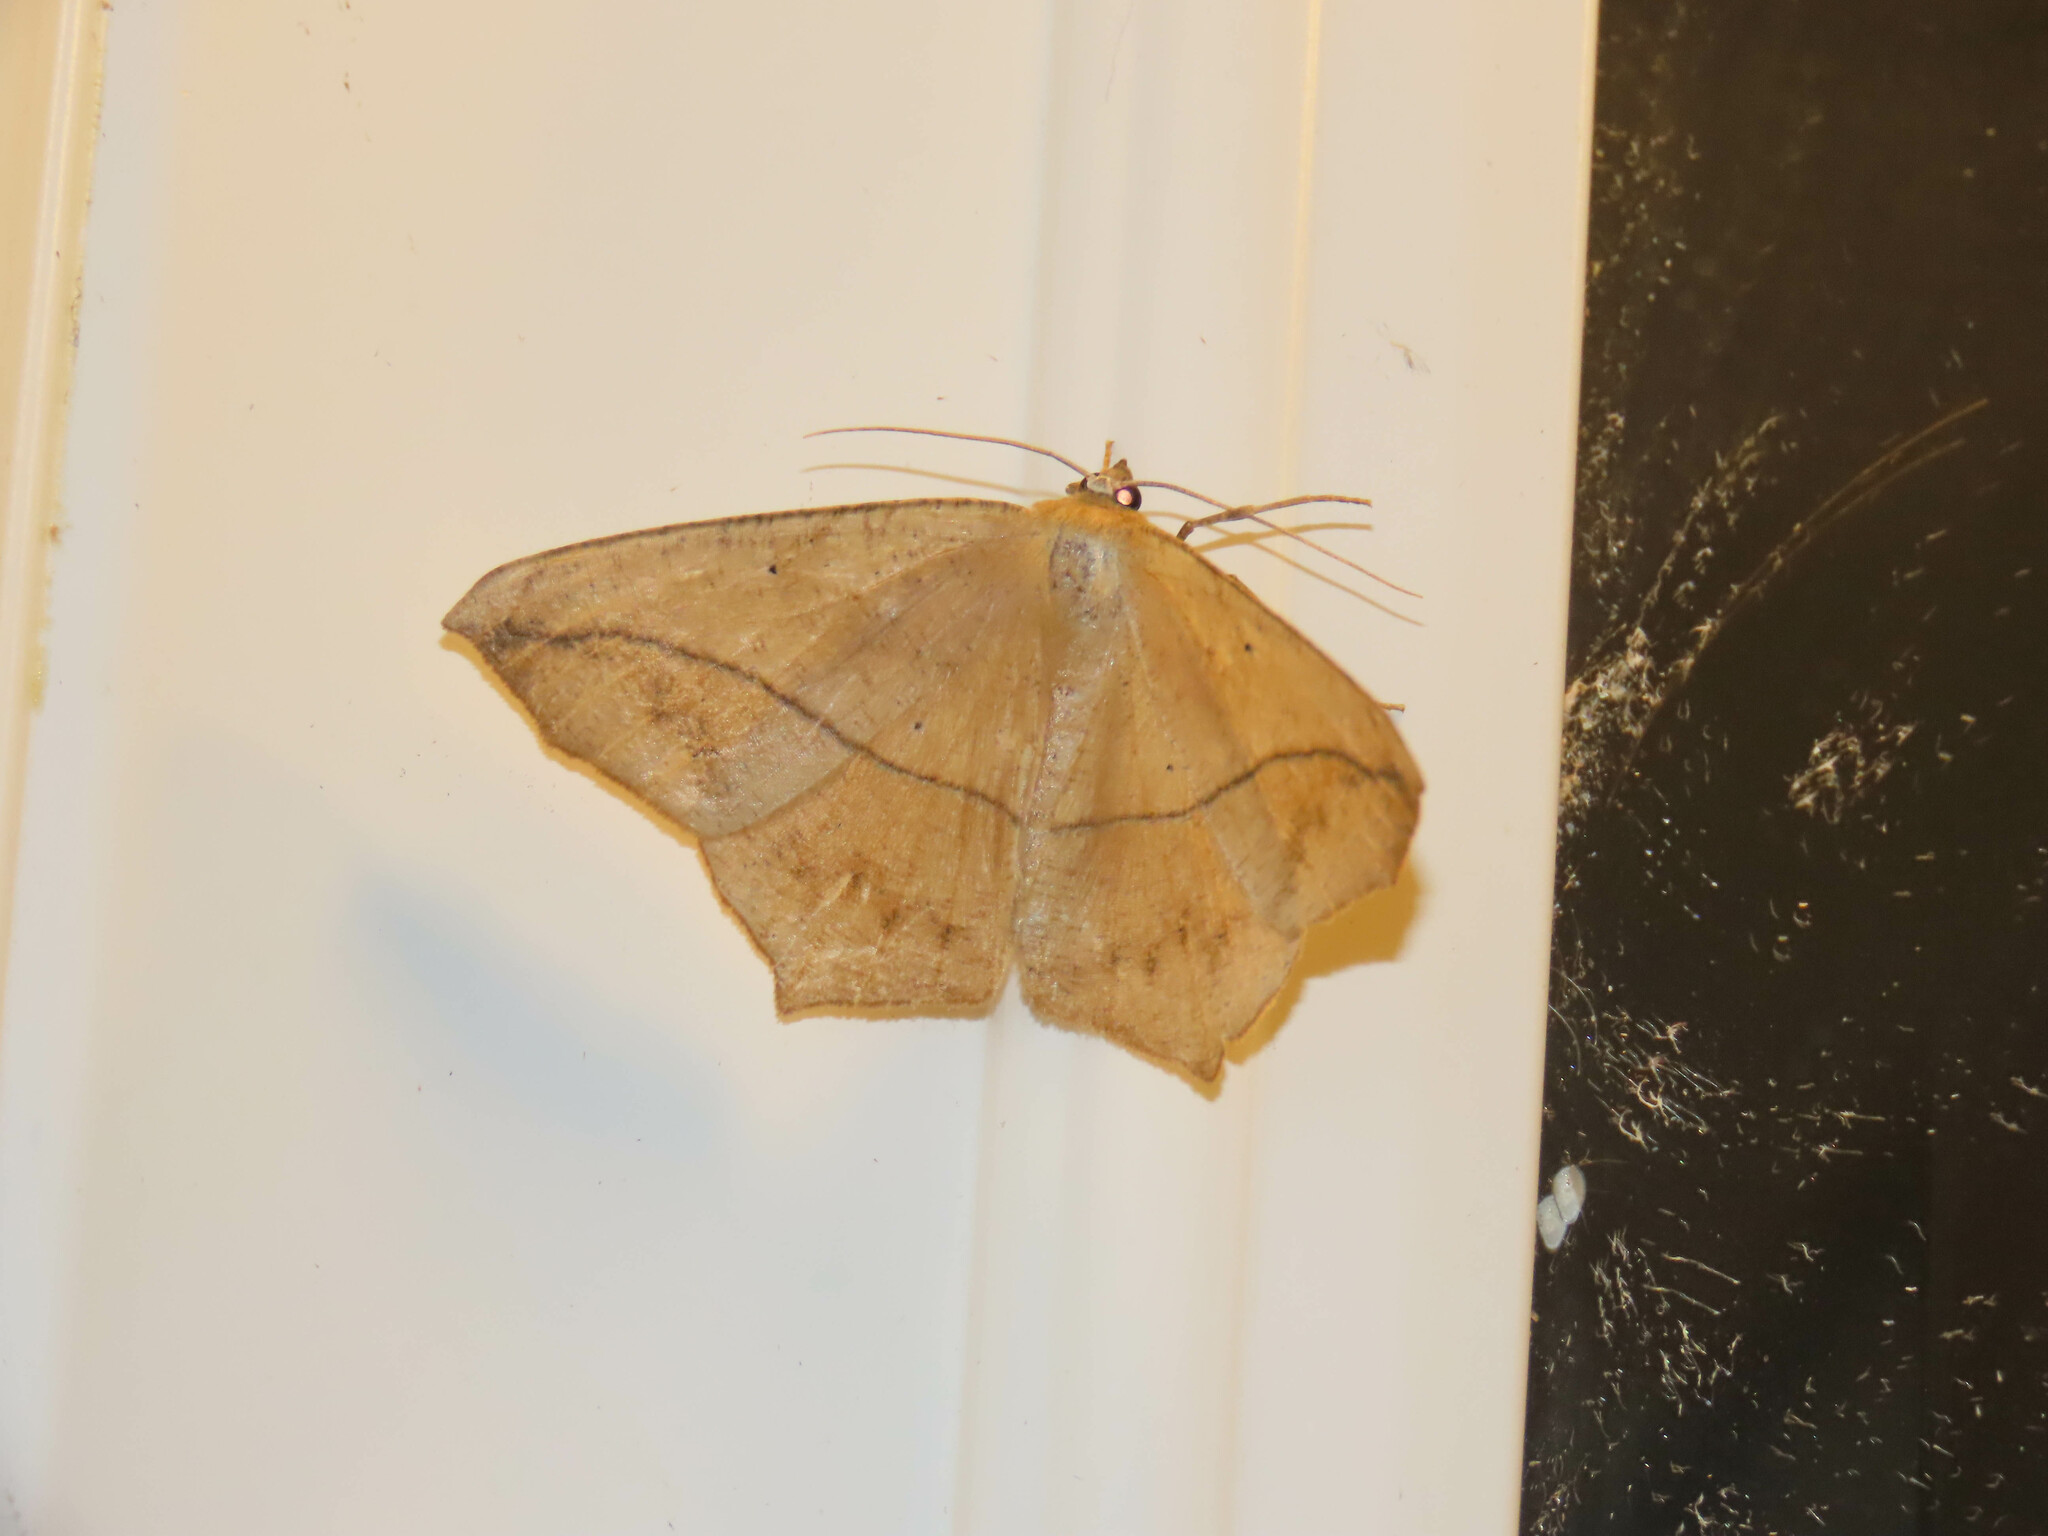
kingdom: Animalia
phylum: Arthropoda
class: Insecta
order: Lepidoptera
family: Geometridae
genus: Prochoerodes
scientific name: Prochoerodes lineola
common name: Large maple spanworm
